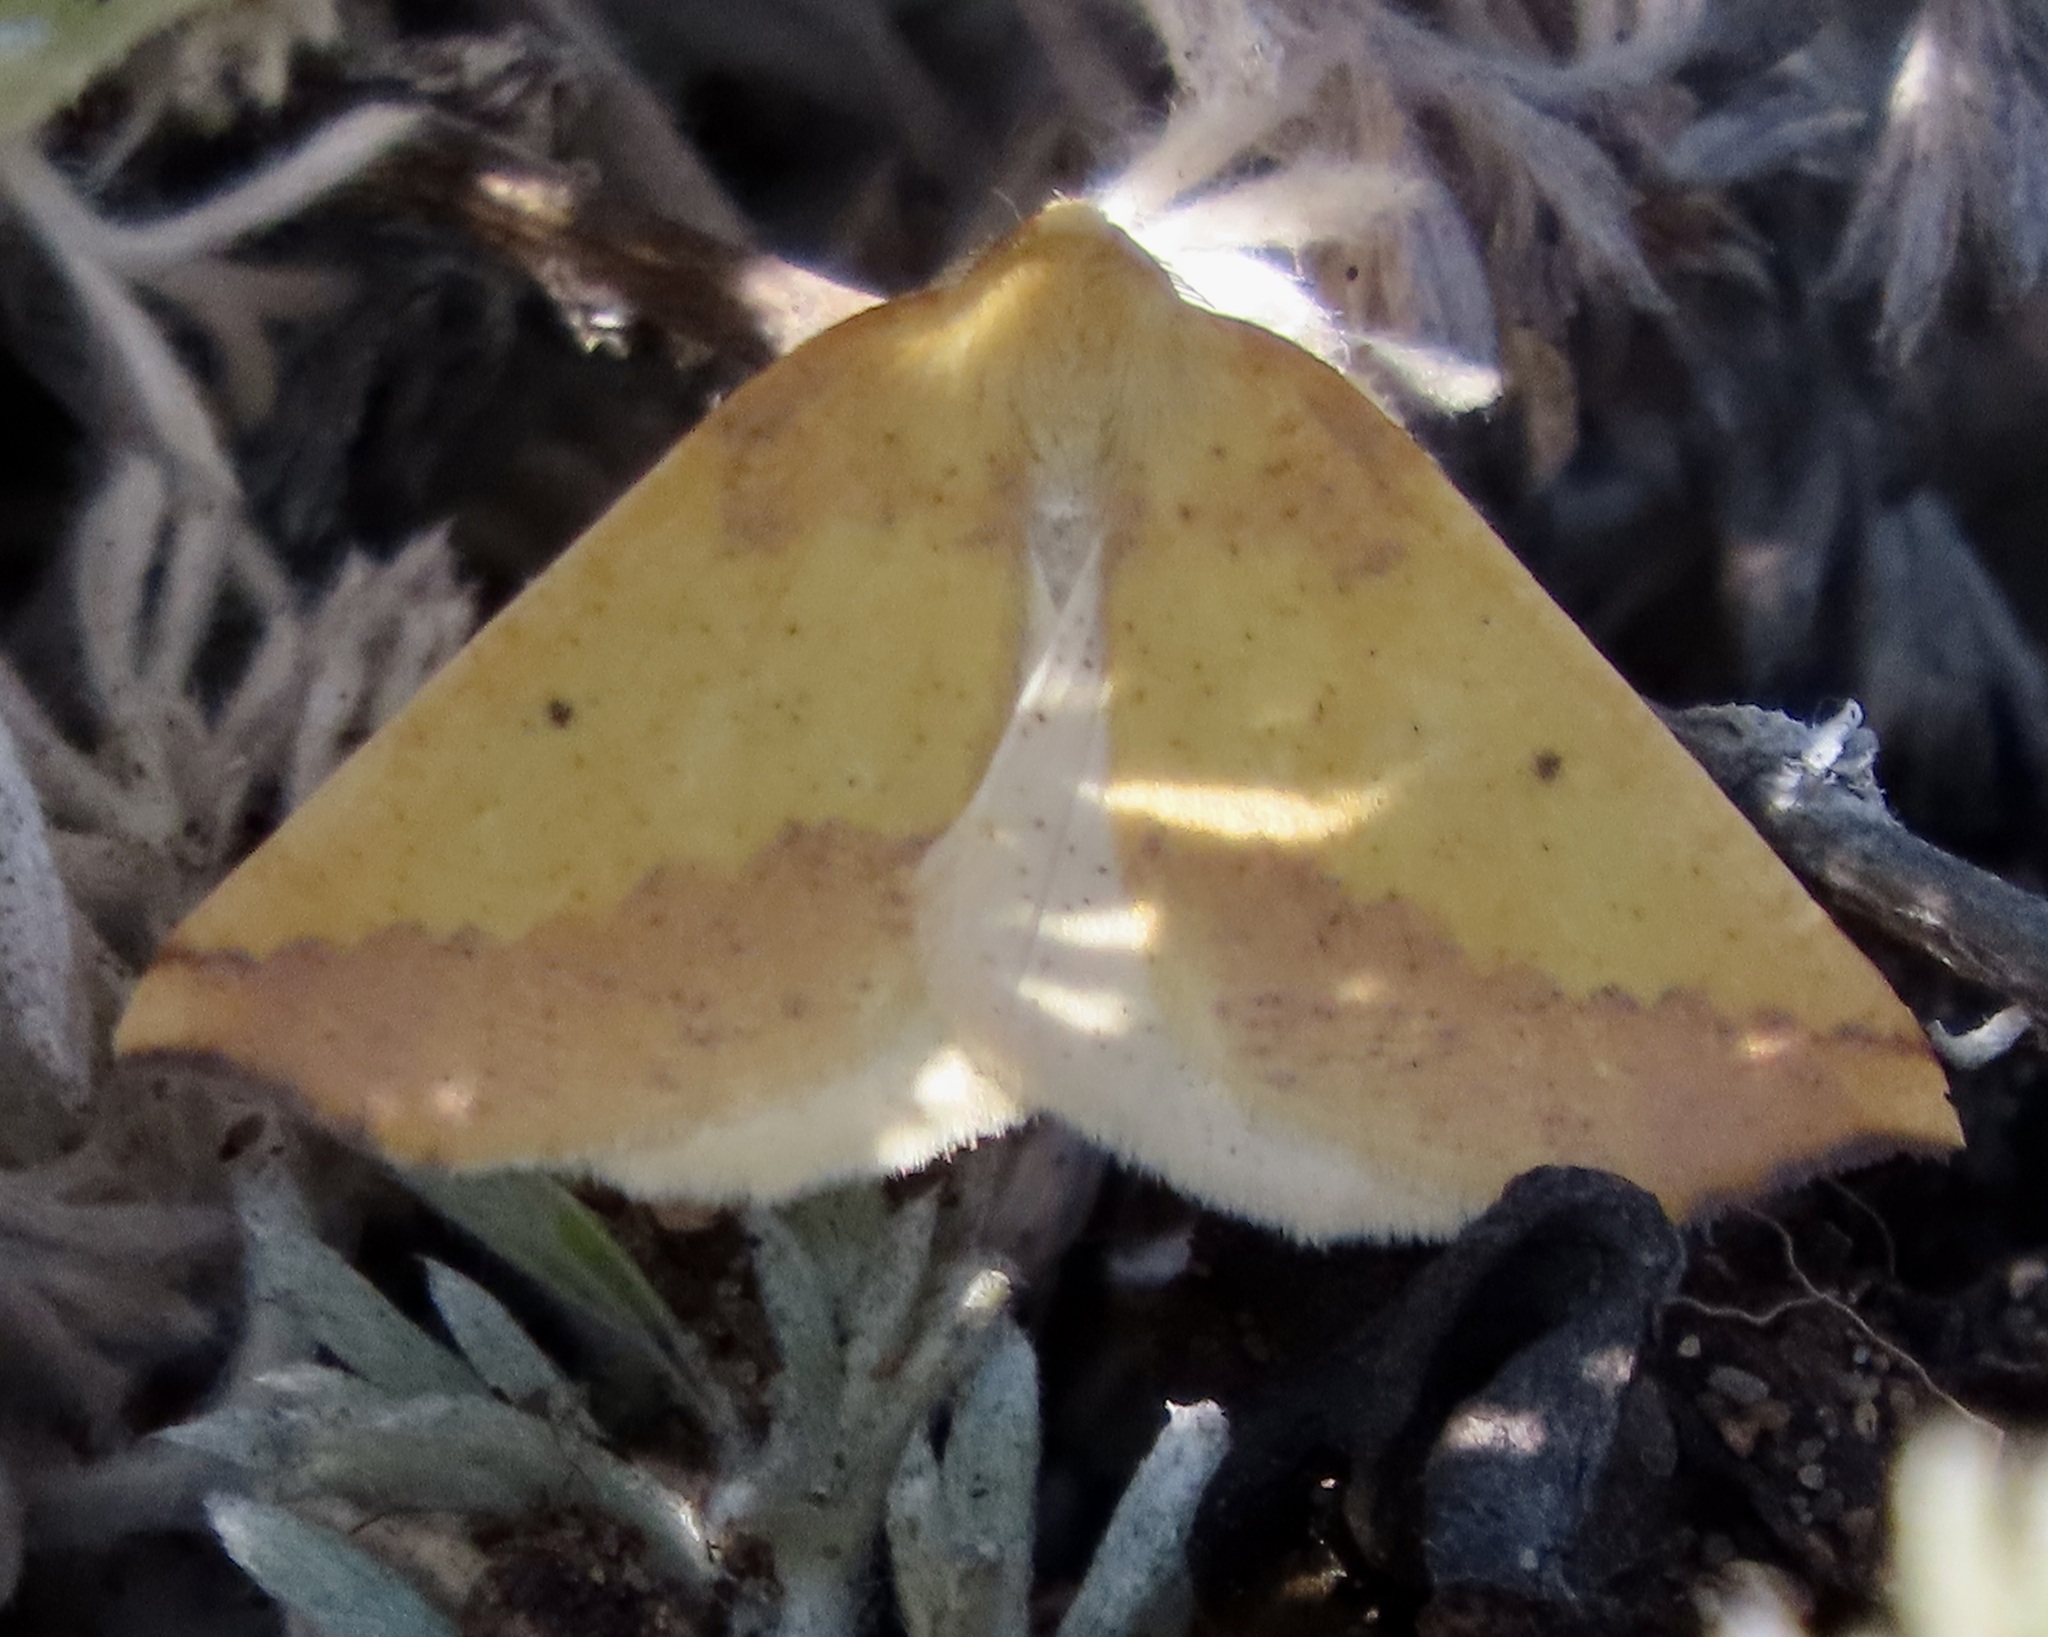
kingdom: Animalia
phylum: Arthropoda
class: Insecta
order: Lepidoptera
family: Geometridae
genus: Neoterpes
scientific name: Neoterpes edwardsata
